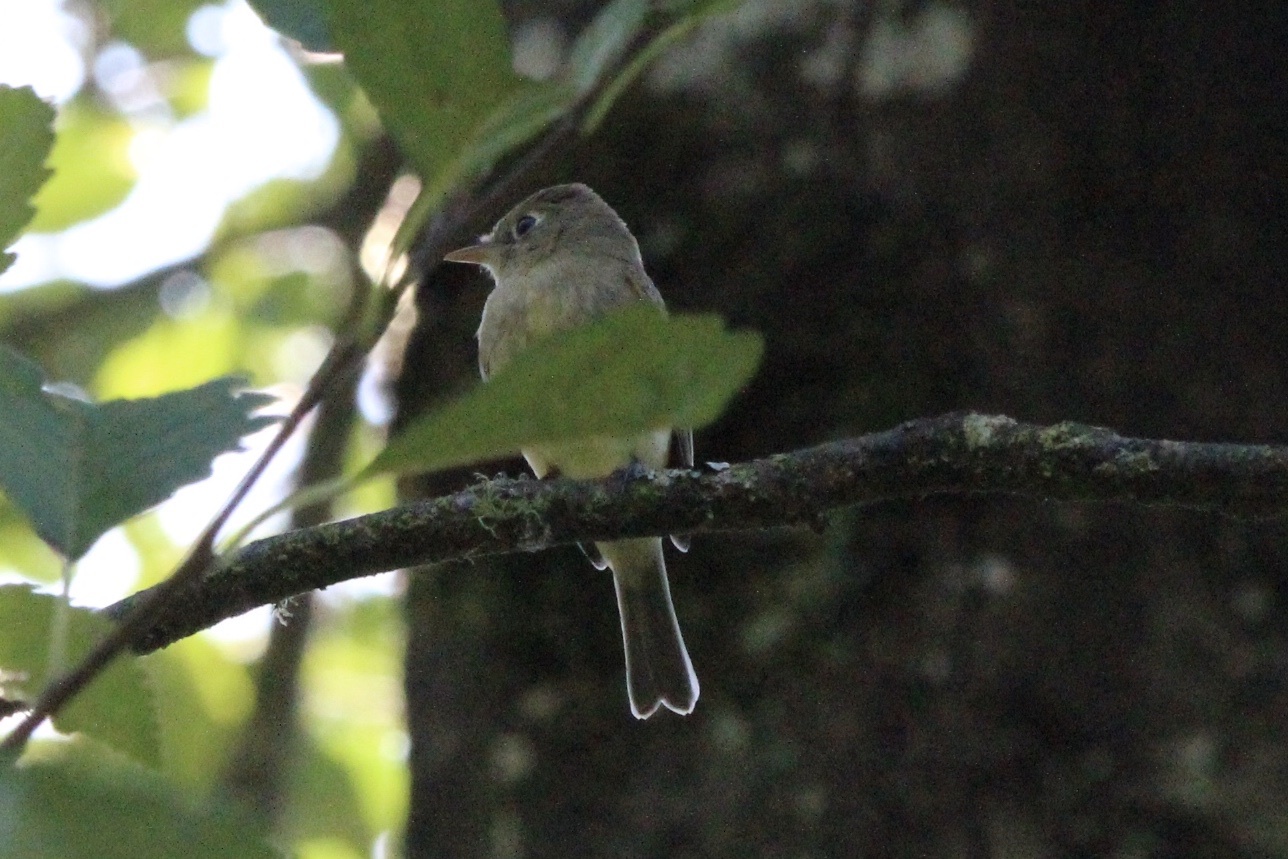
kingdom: Animalia
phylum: Chordata
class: Aves
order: Passeriformes
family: Tyrannidae
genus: Empidonax
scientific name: Empidonax difficilis
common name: Pacific-slope flycatcher
